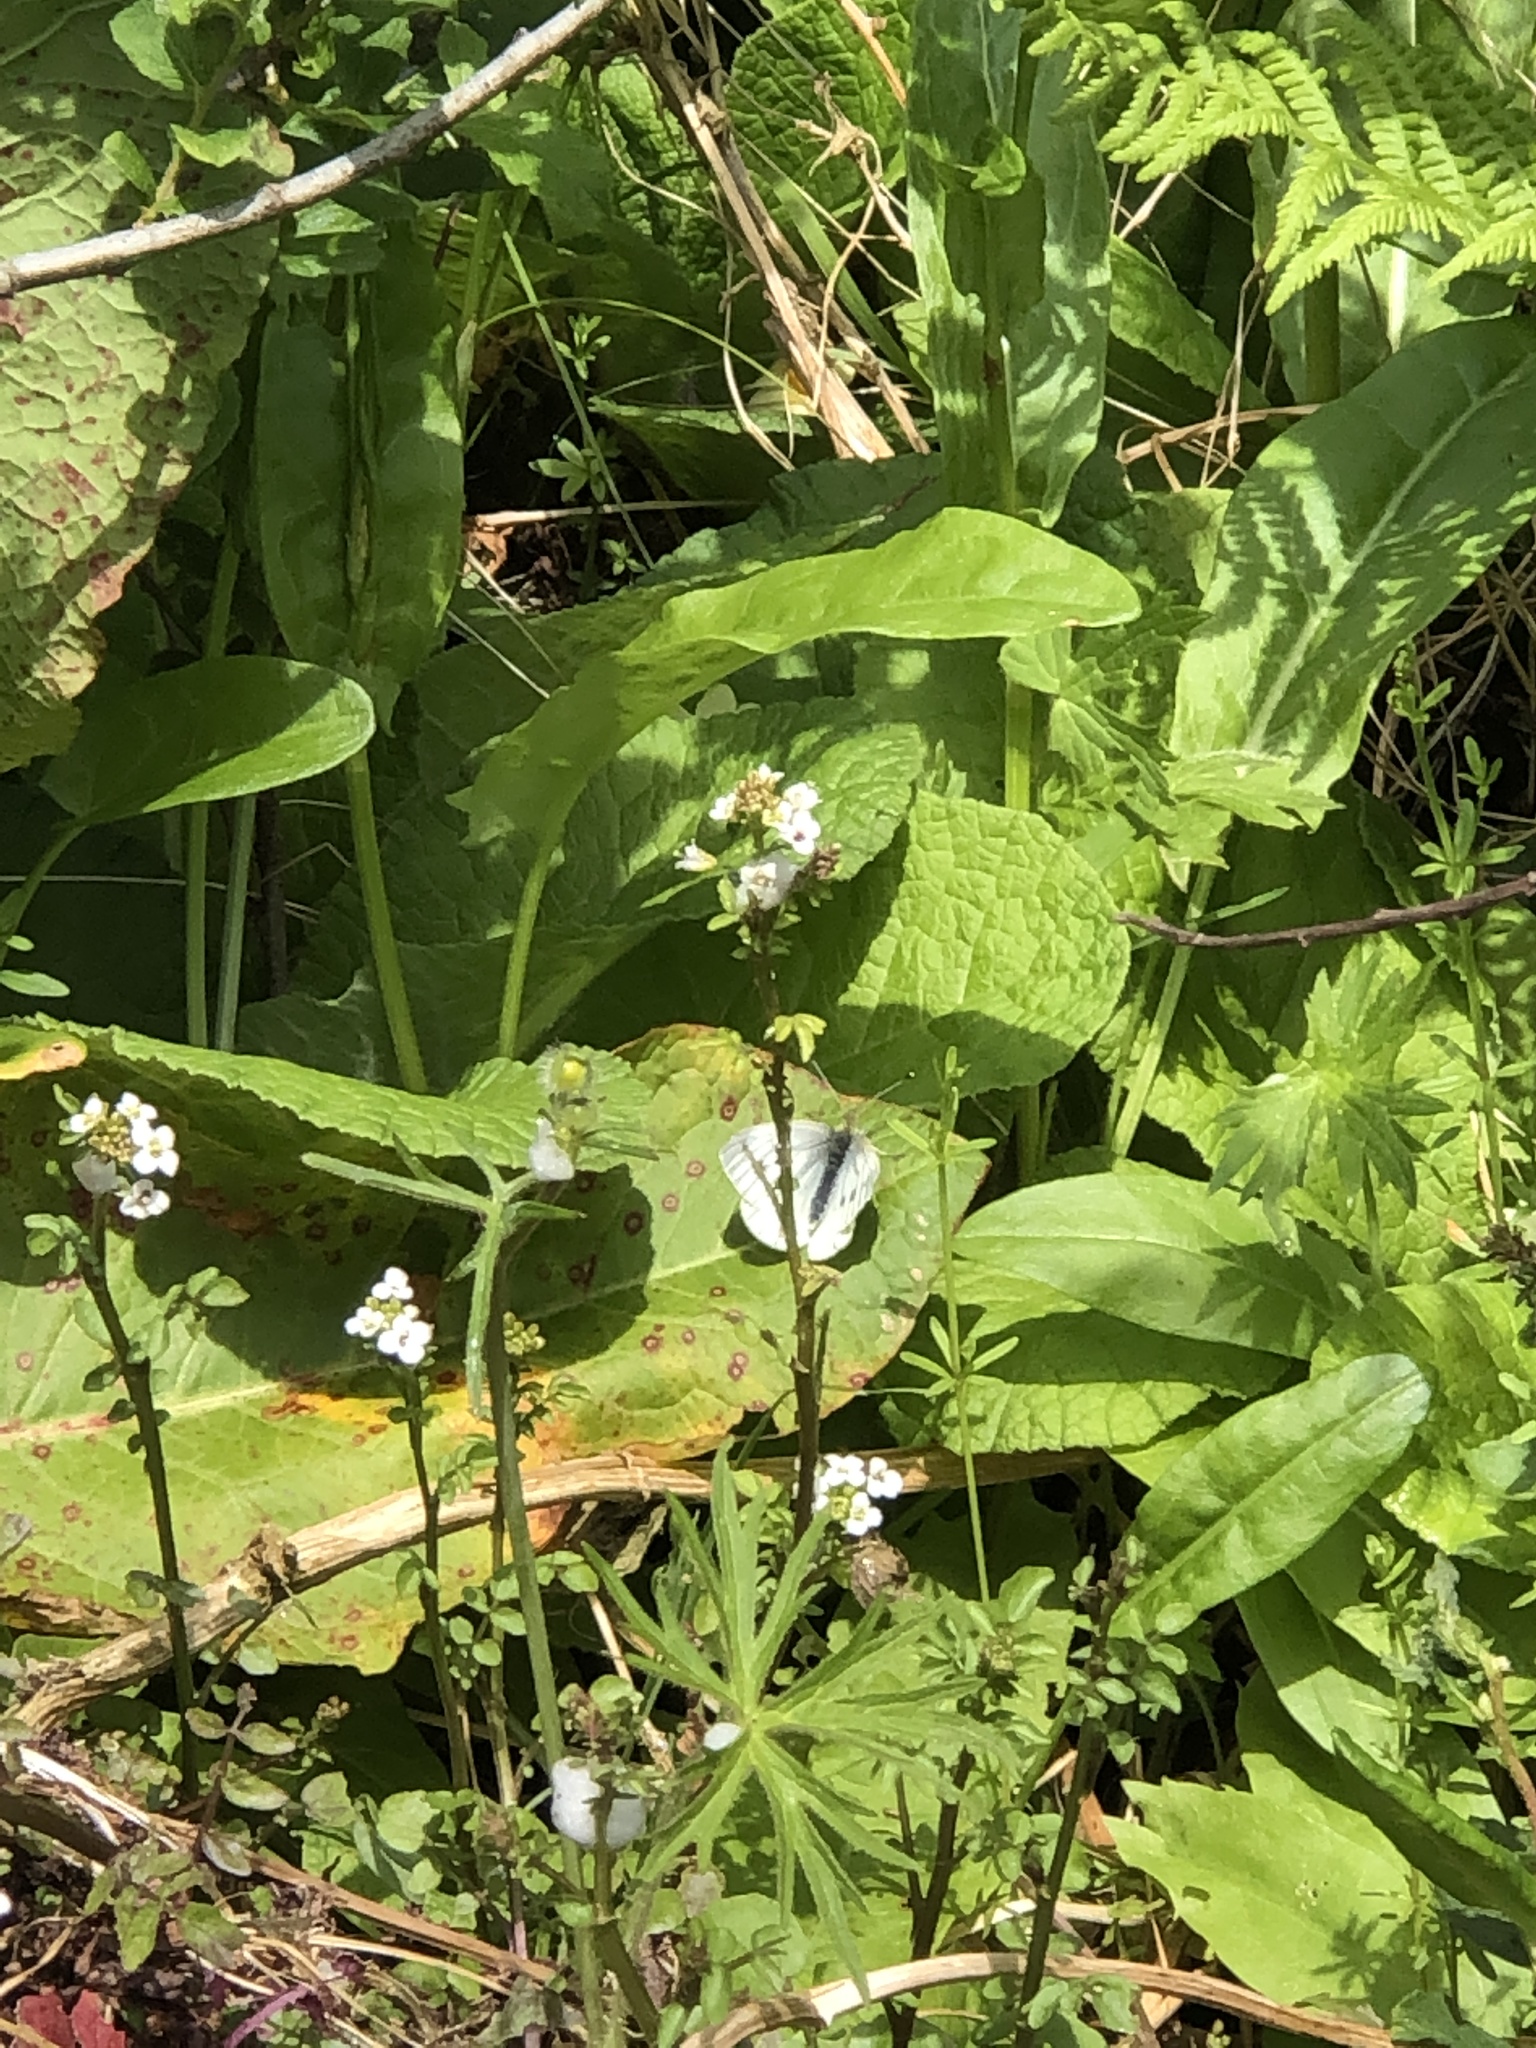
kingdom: Animalia
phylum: Arthropoda
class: Insecta
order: Lepidoptera
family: Pieridae
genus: Pieris
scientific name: Pieris napi
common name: Green-veined white
